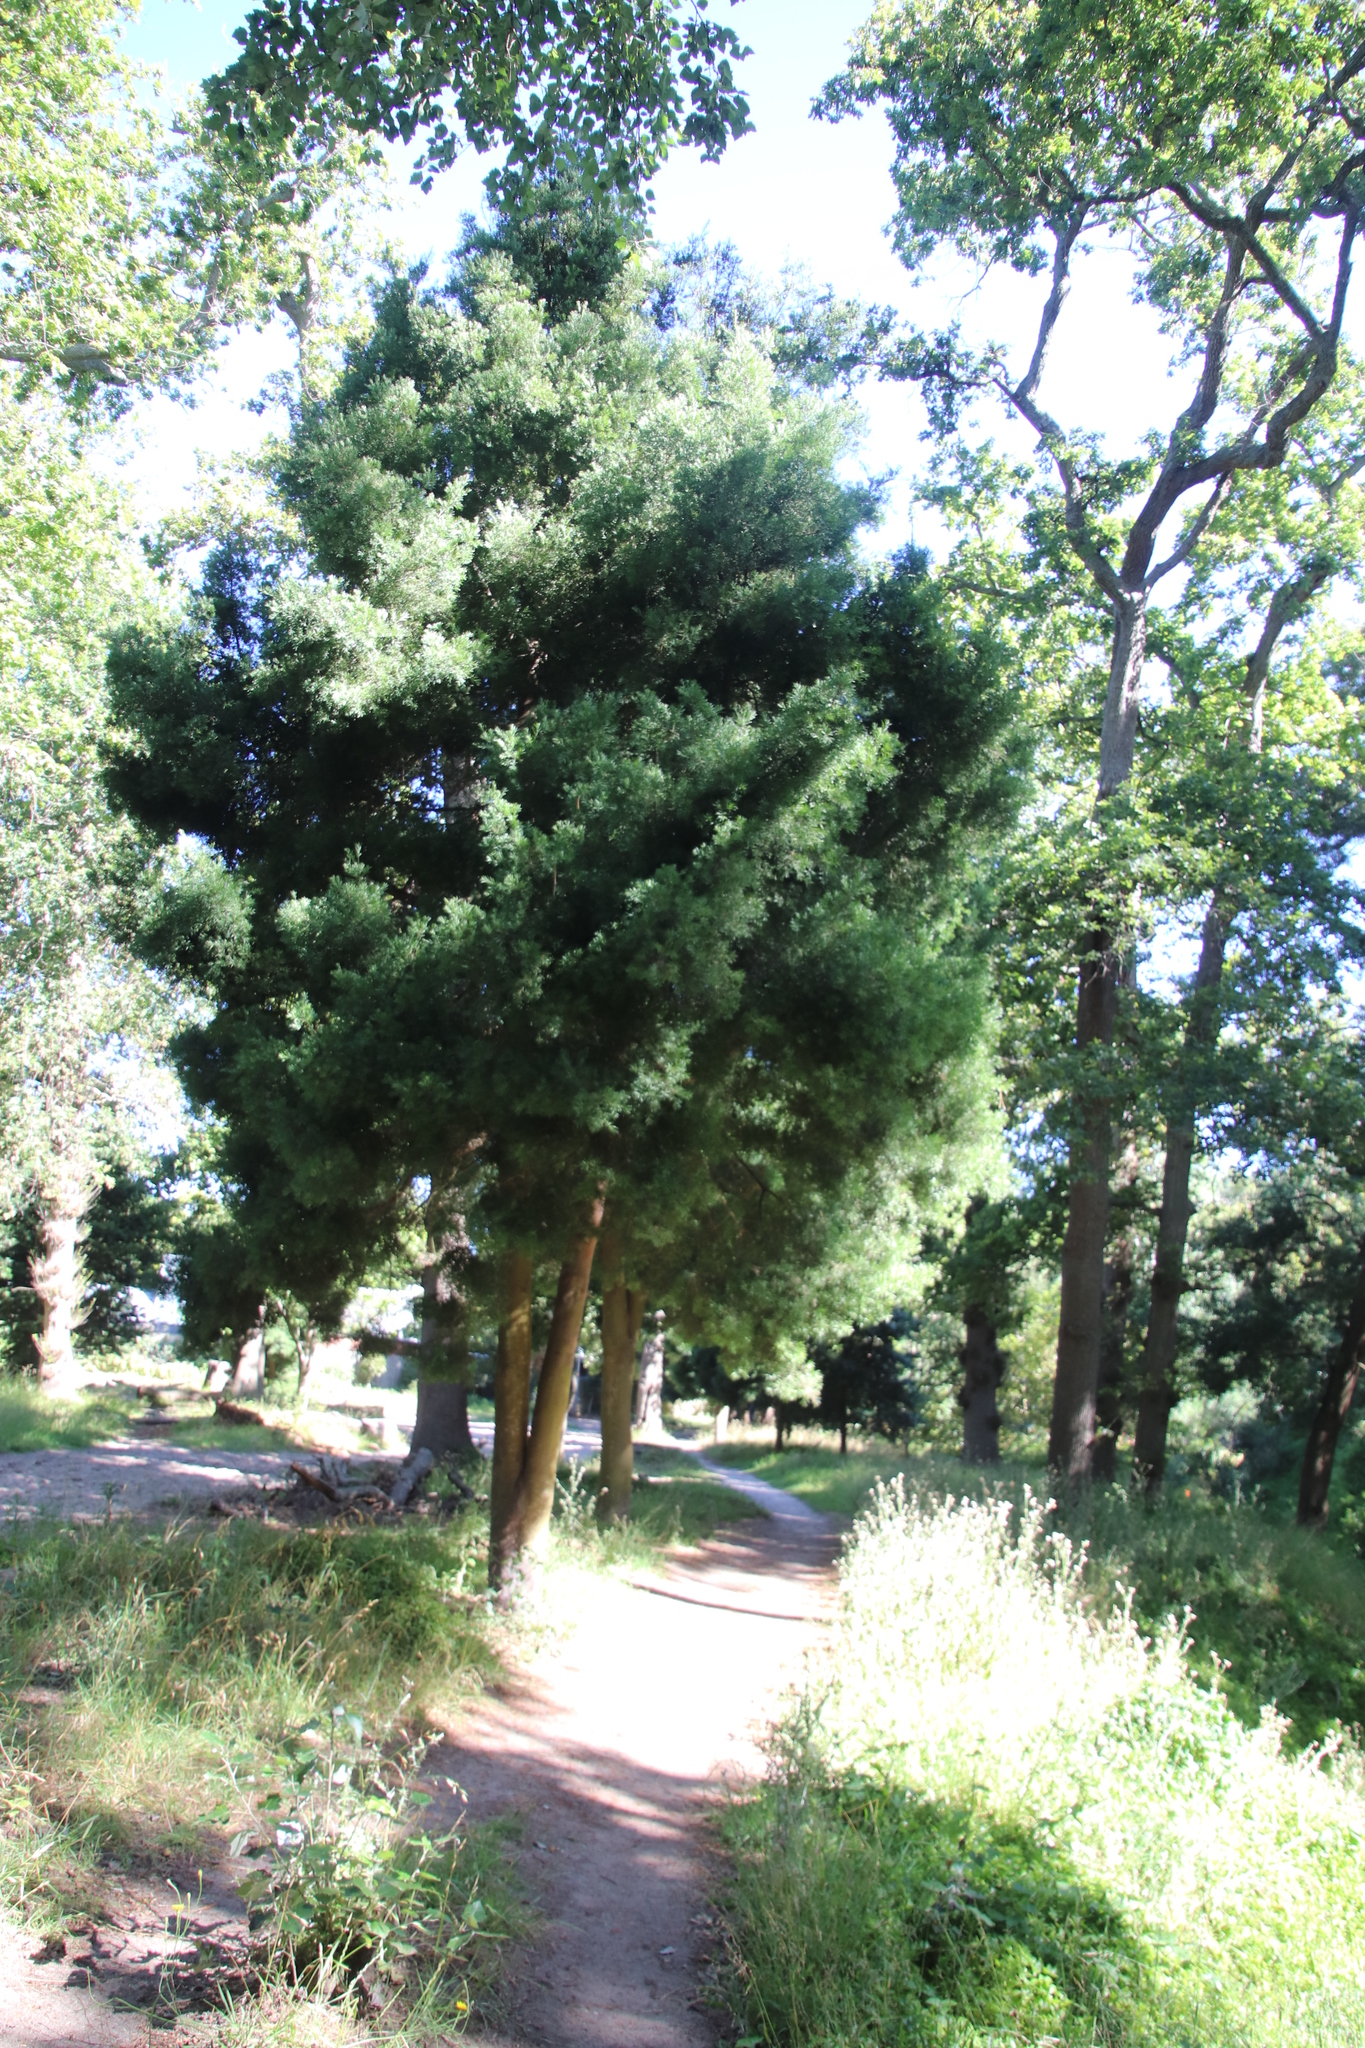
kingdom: Plantae
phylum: Tracheophyta
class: Pinopsida
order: Pinales
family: Podocarpaceae
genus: Afrocarpus
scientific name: Afrocarpus falcatus
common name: Bastard yellowwood
